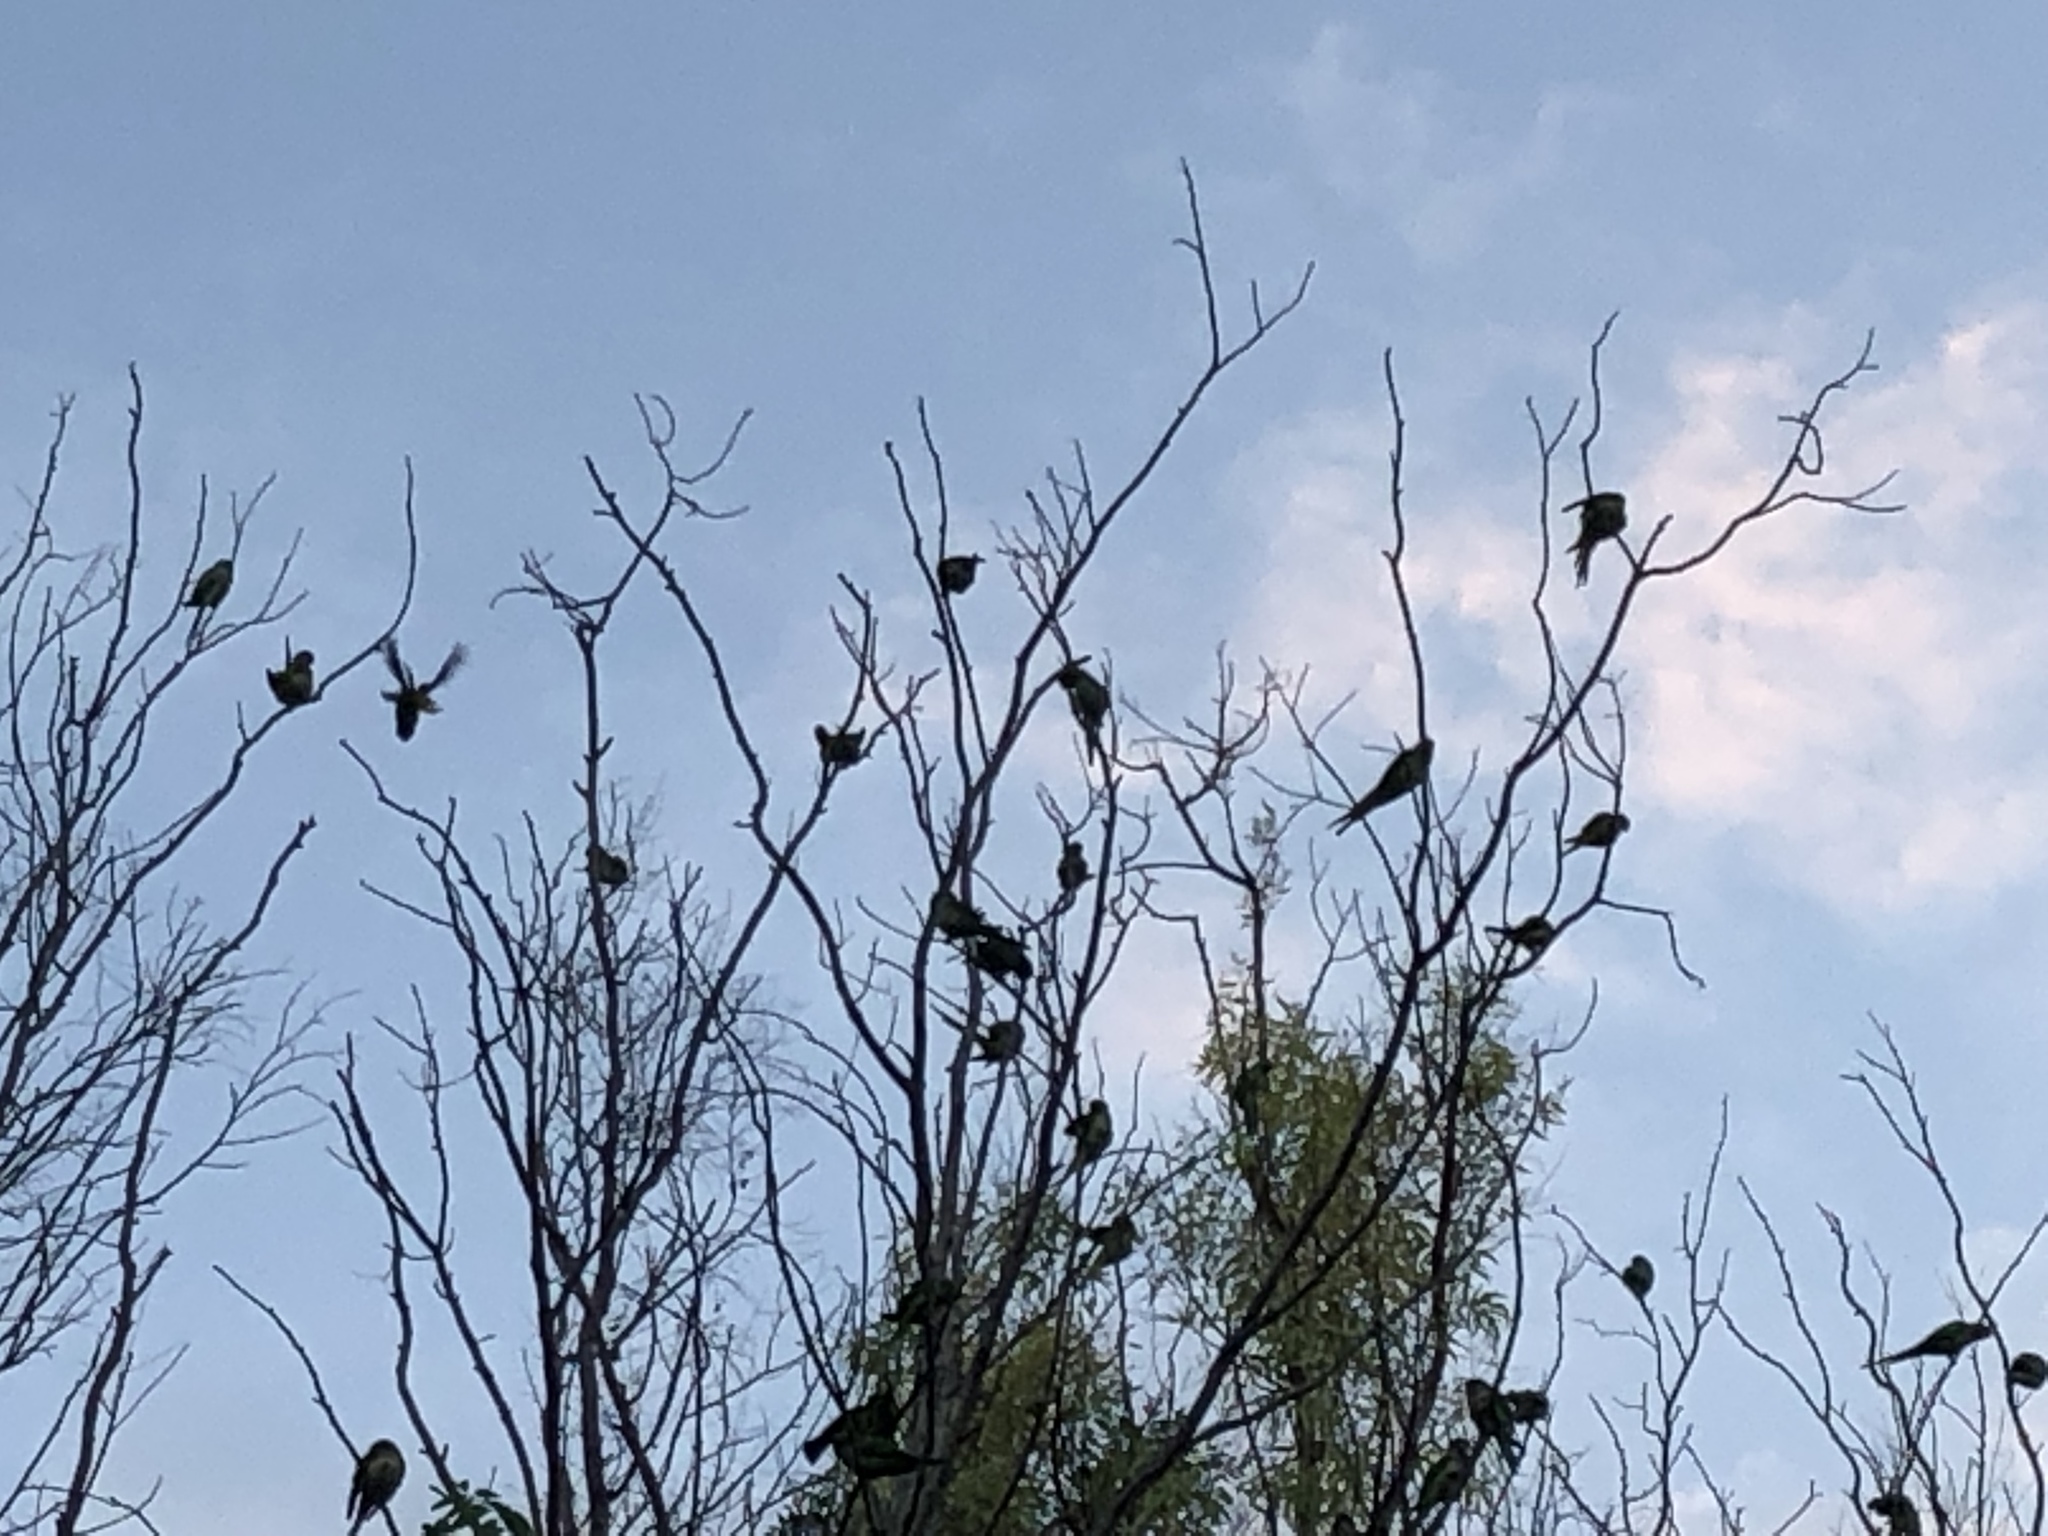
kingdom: Animalia
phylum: Chordata
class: Aves
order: Psittaciformes
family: Psittacidae
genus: Psittacula
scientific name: Psittacula krameri
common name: Rose-ringed parakeet
